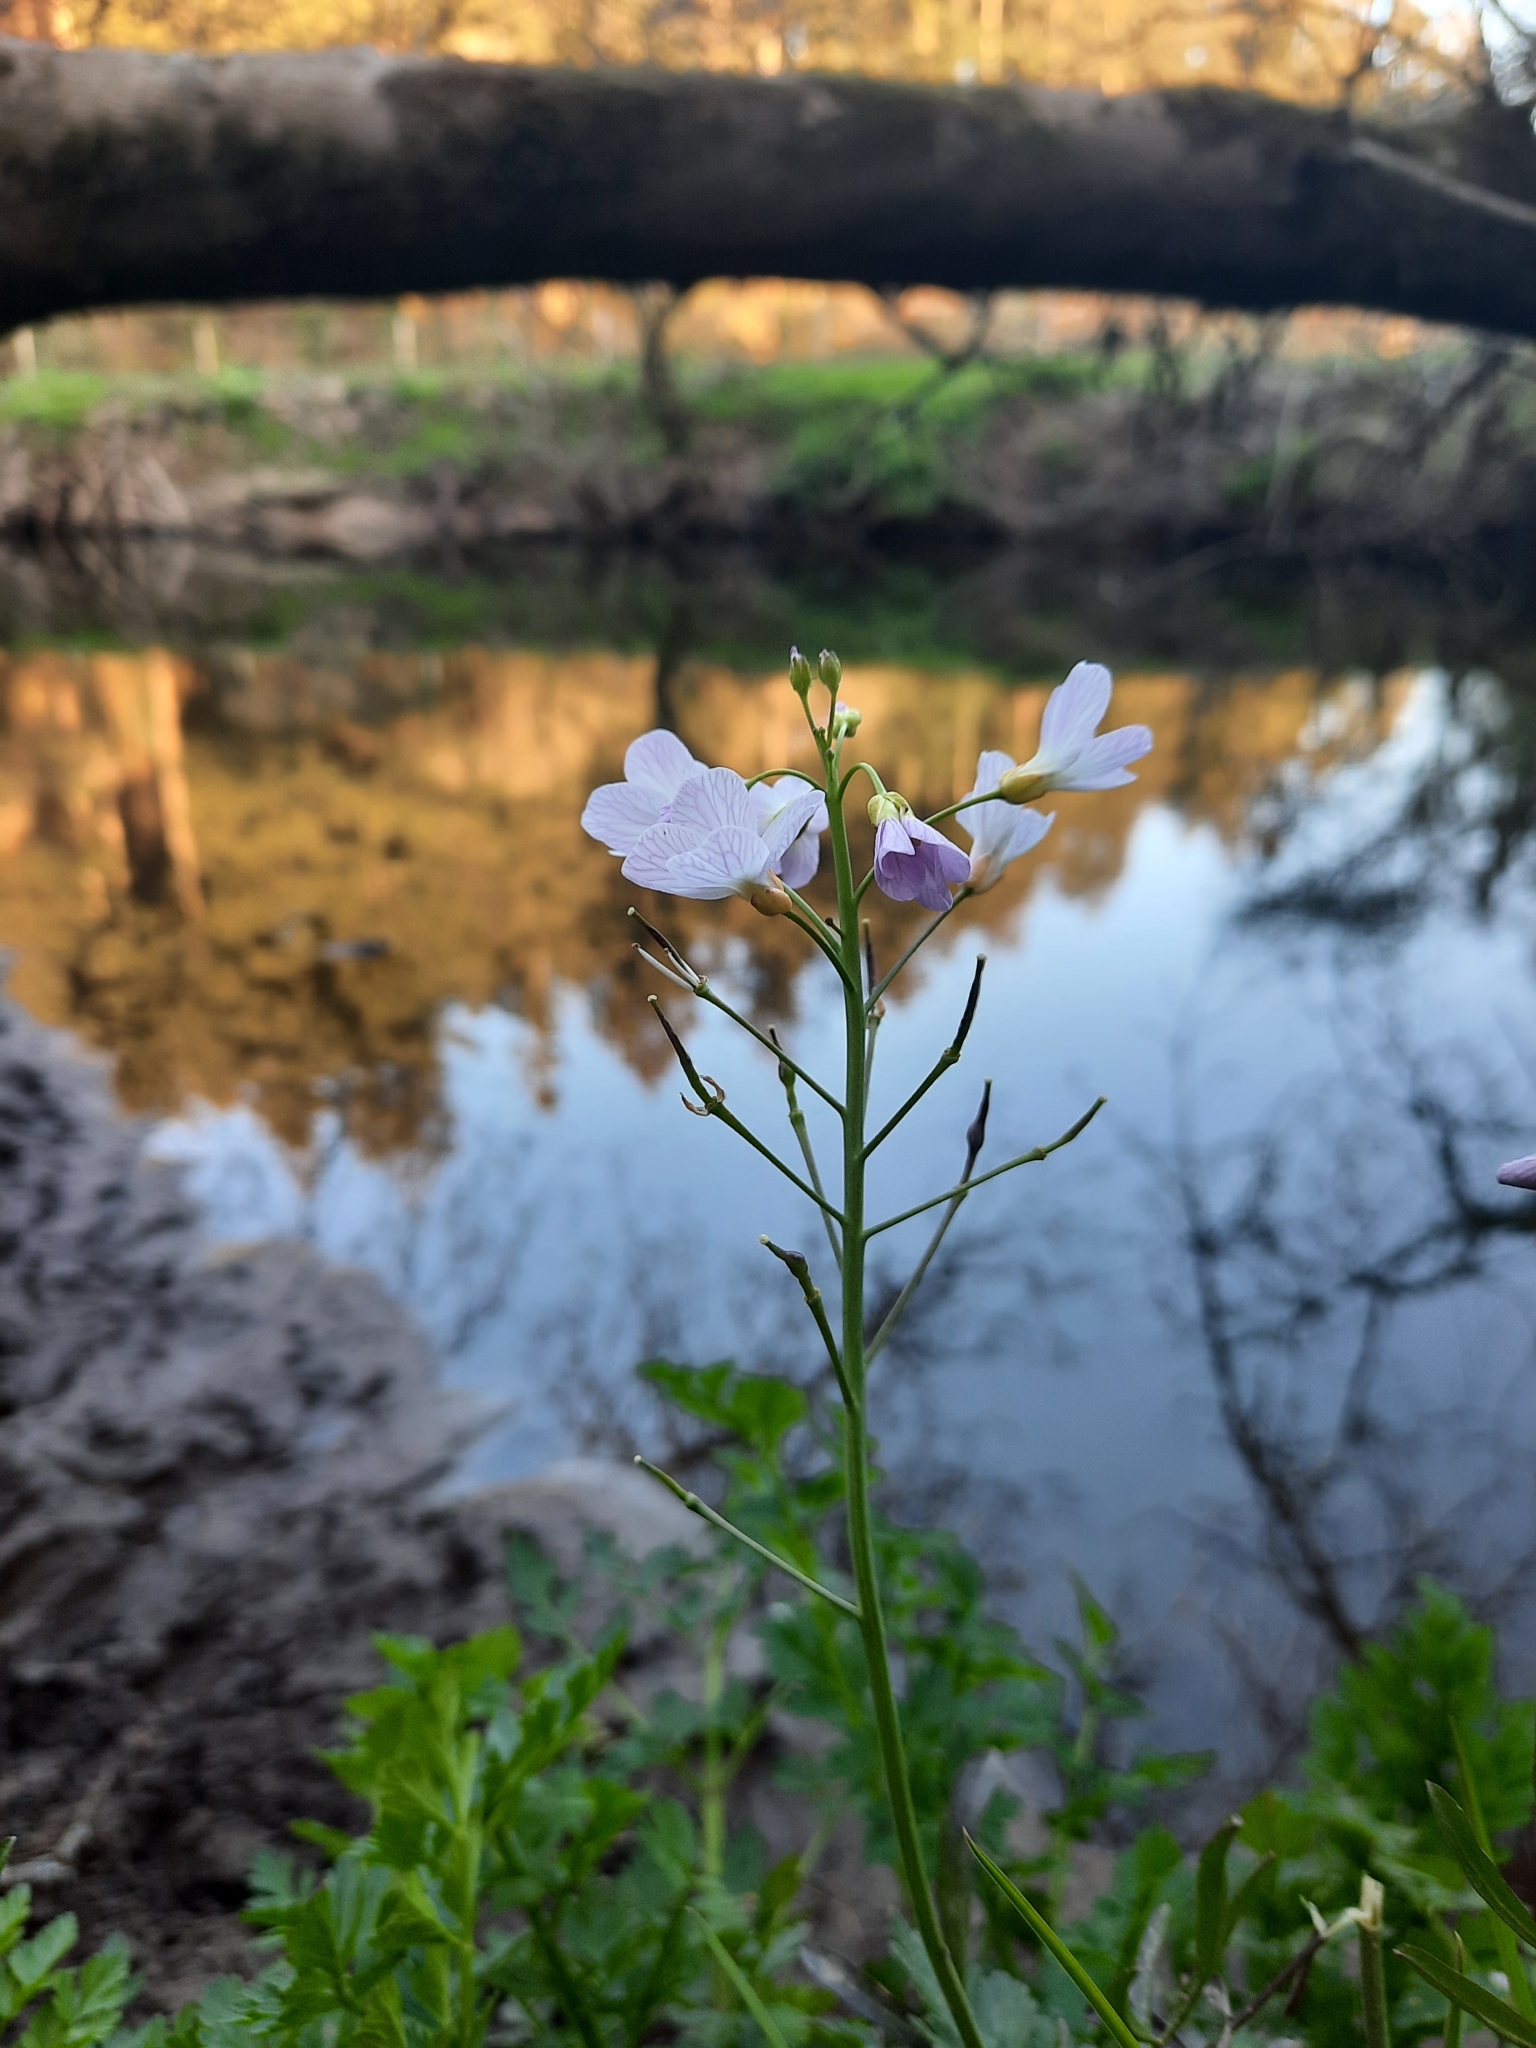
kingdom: Plantae
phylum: Tracheophyta
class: Magnoliopsida
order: Brassicales
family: Brassicaceae
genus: Cardamine
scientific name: Cardamine pratensis
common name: Cuckoo flower
